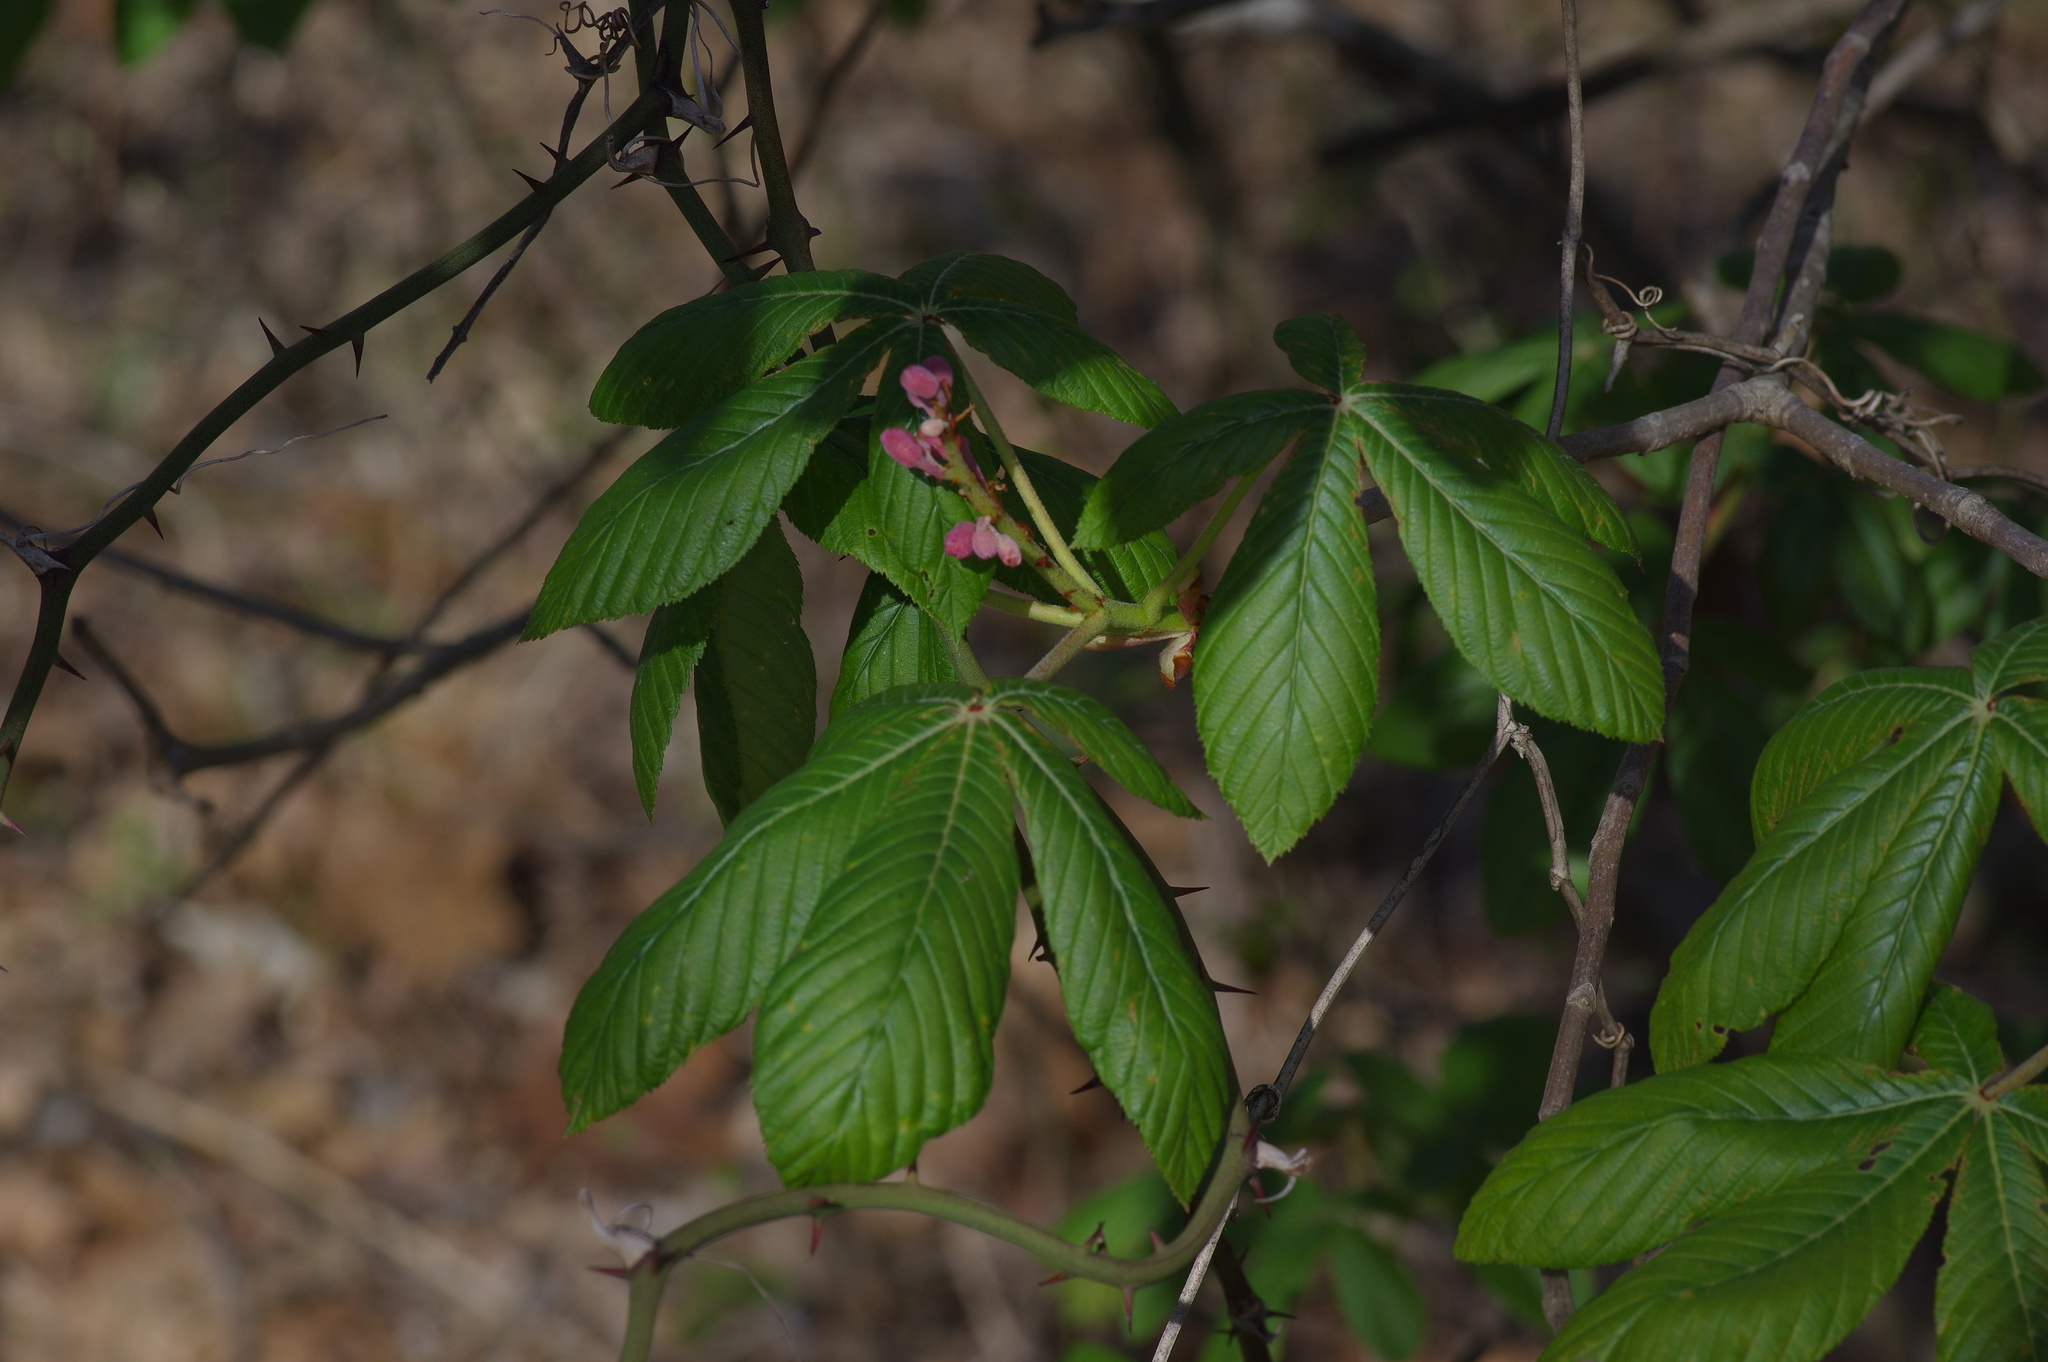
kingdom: Plantae
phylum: Tracheophyta
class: Magnoliopsida
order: Sapindales
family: Sapindaceae
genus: Aesculus
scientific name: Aesculus pavia
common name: Red buckeye
